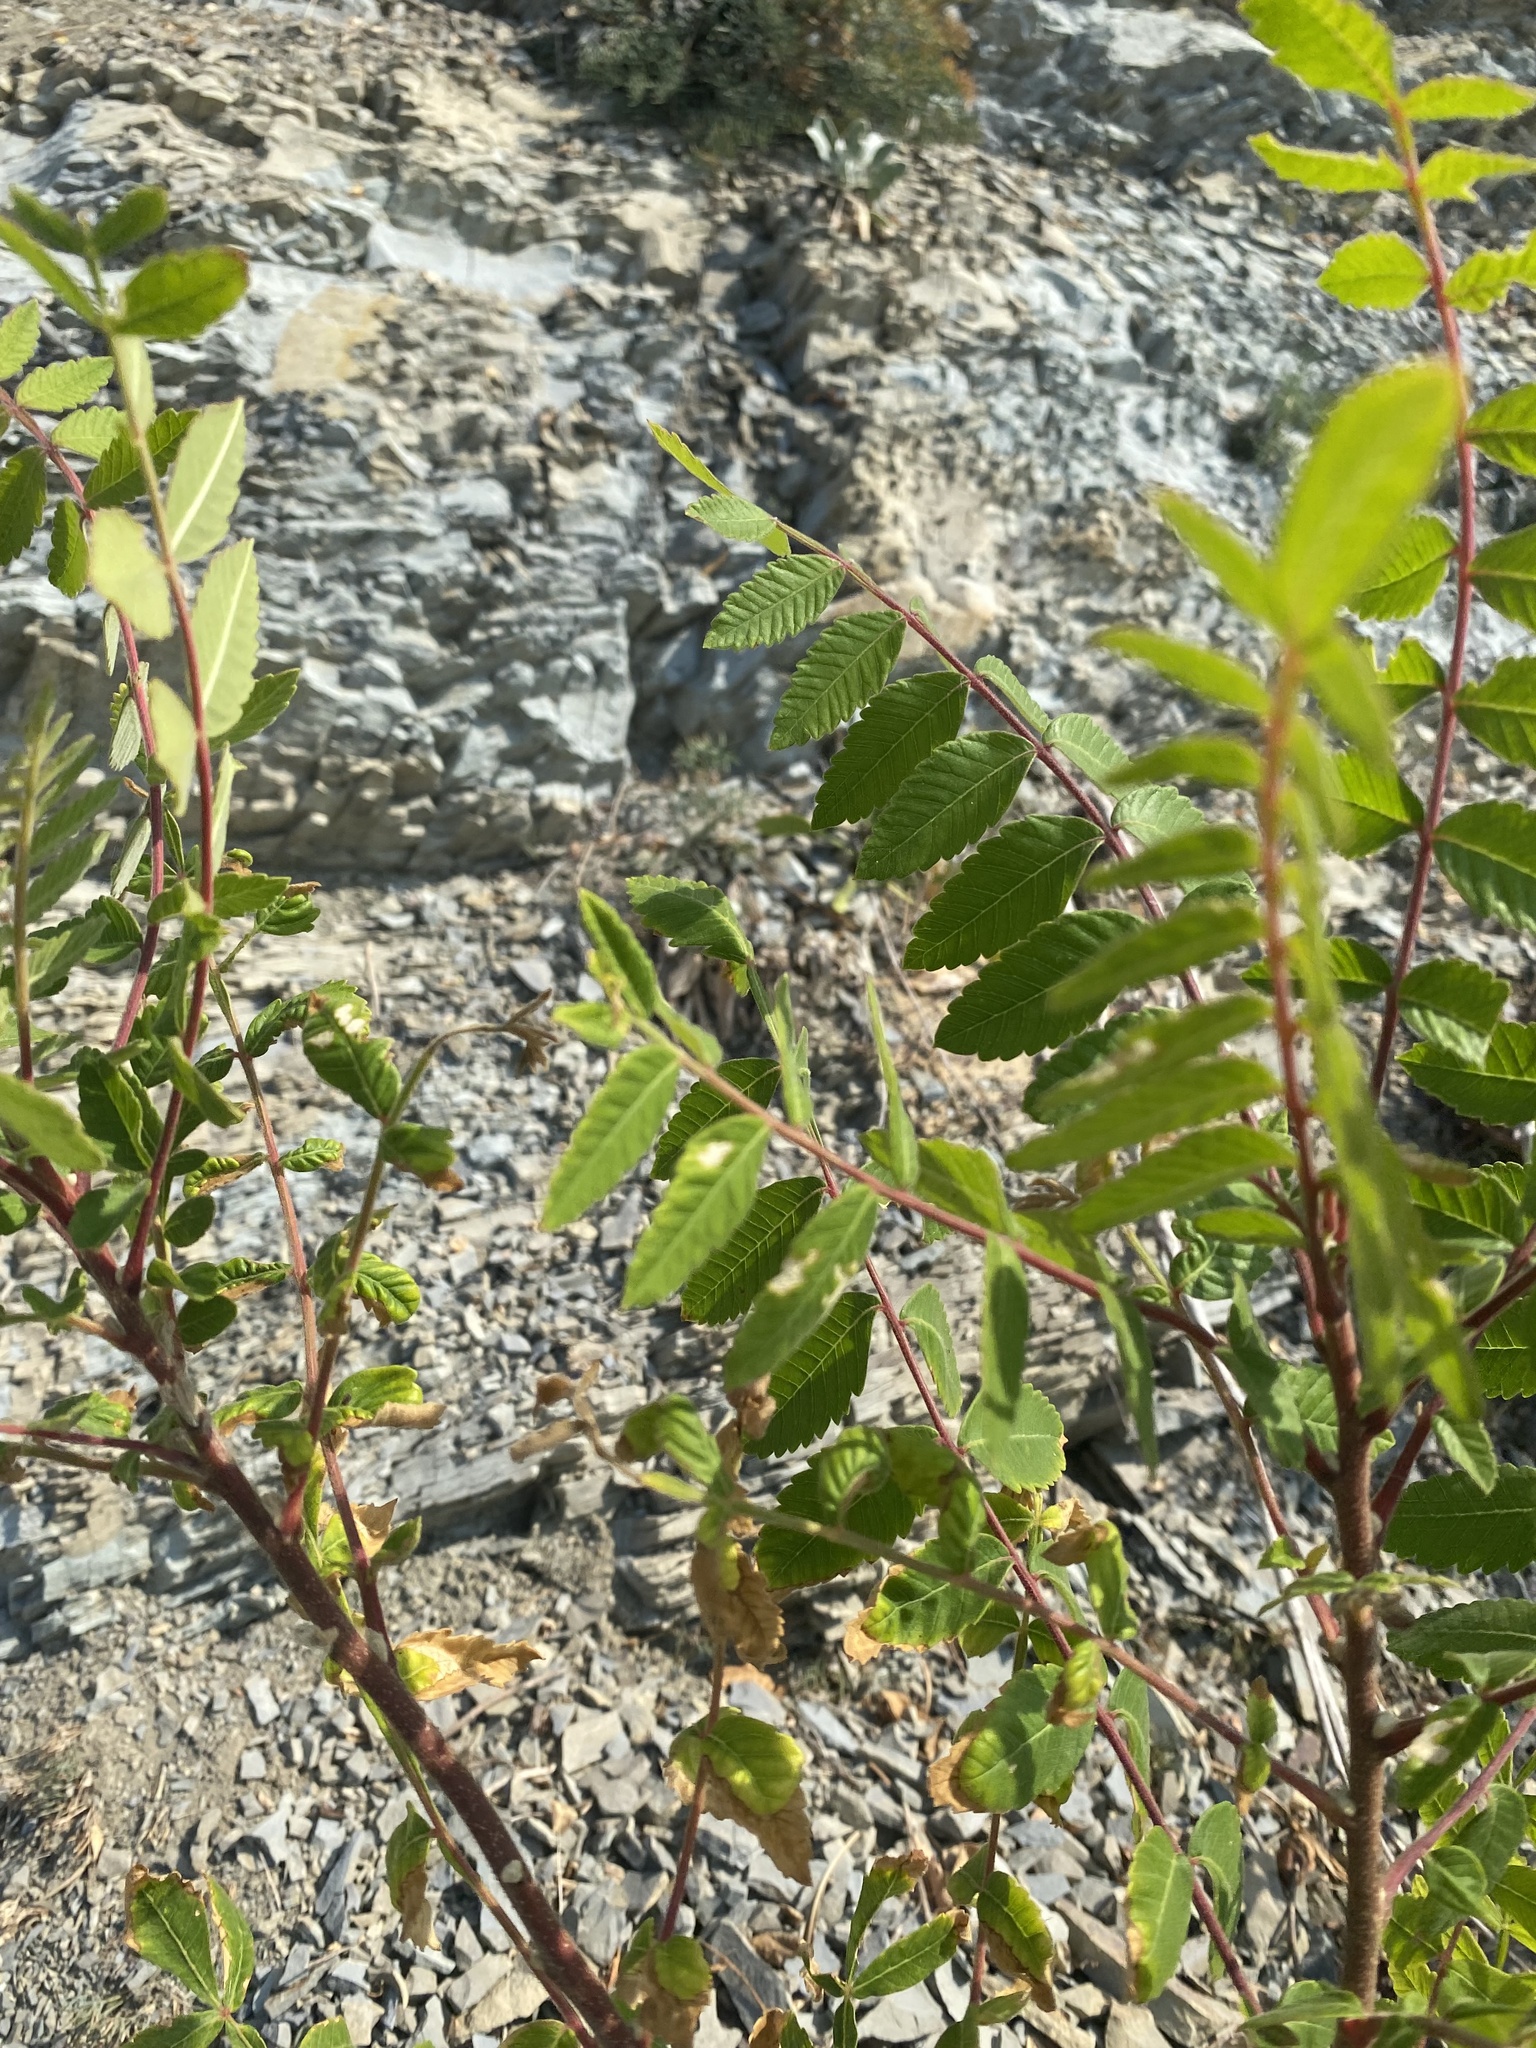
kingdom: Plantae
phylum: Tracheophyta
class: Magnoliopsida
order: Sapindales
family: Anacardiaceae
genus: Rhus
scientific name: Rhus coriaria
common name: Tanner's sumach
